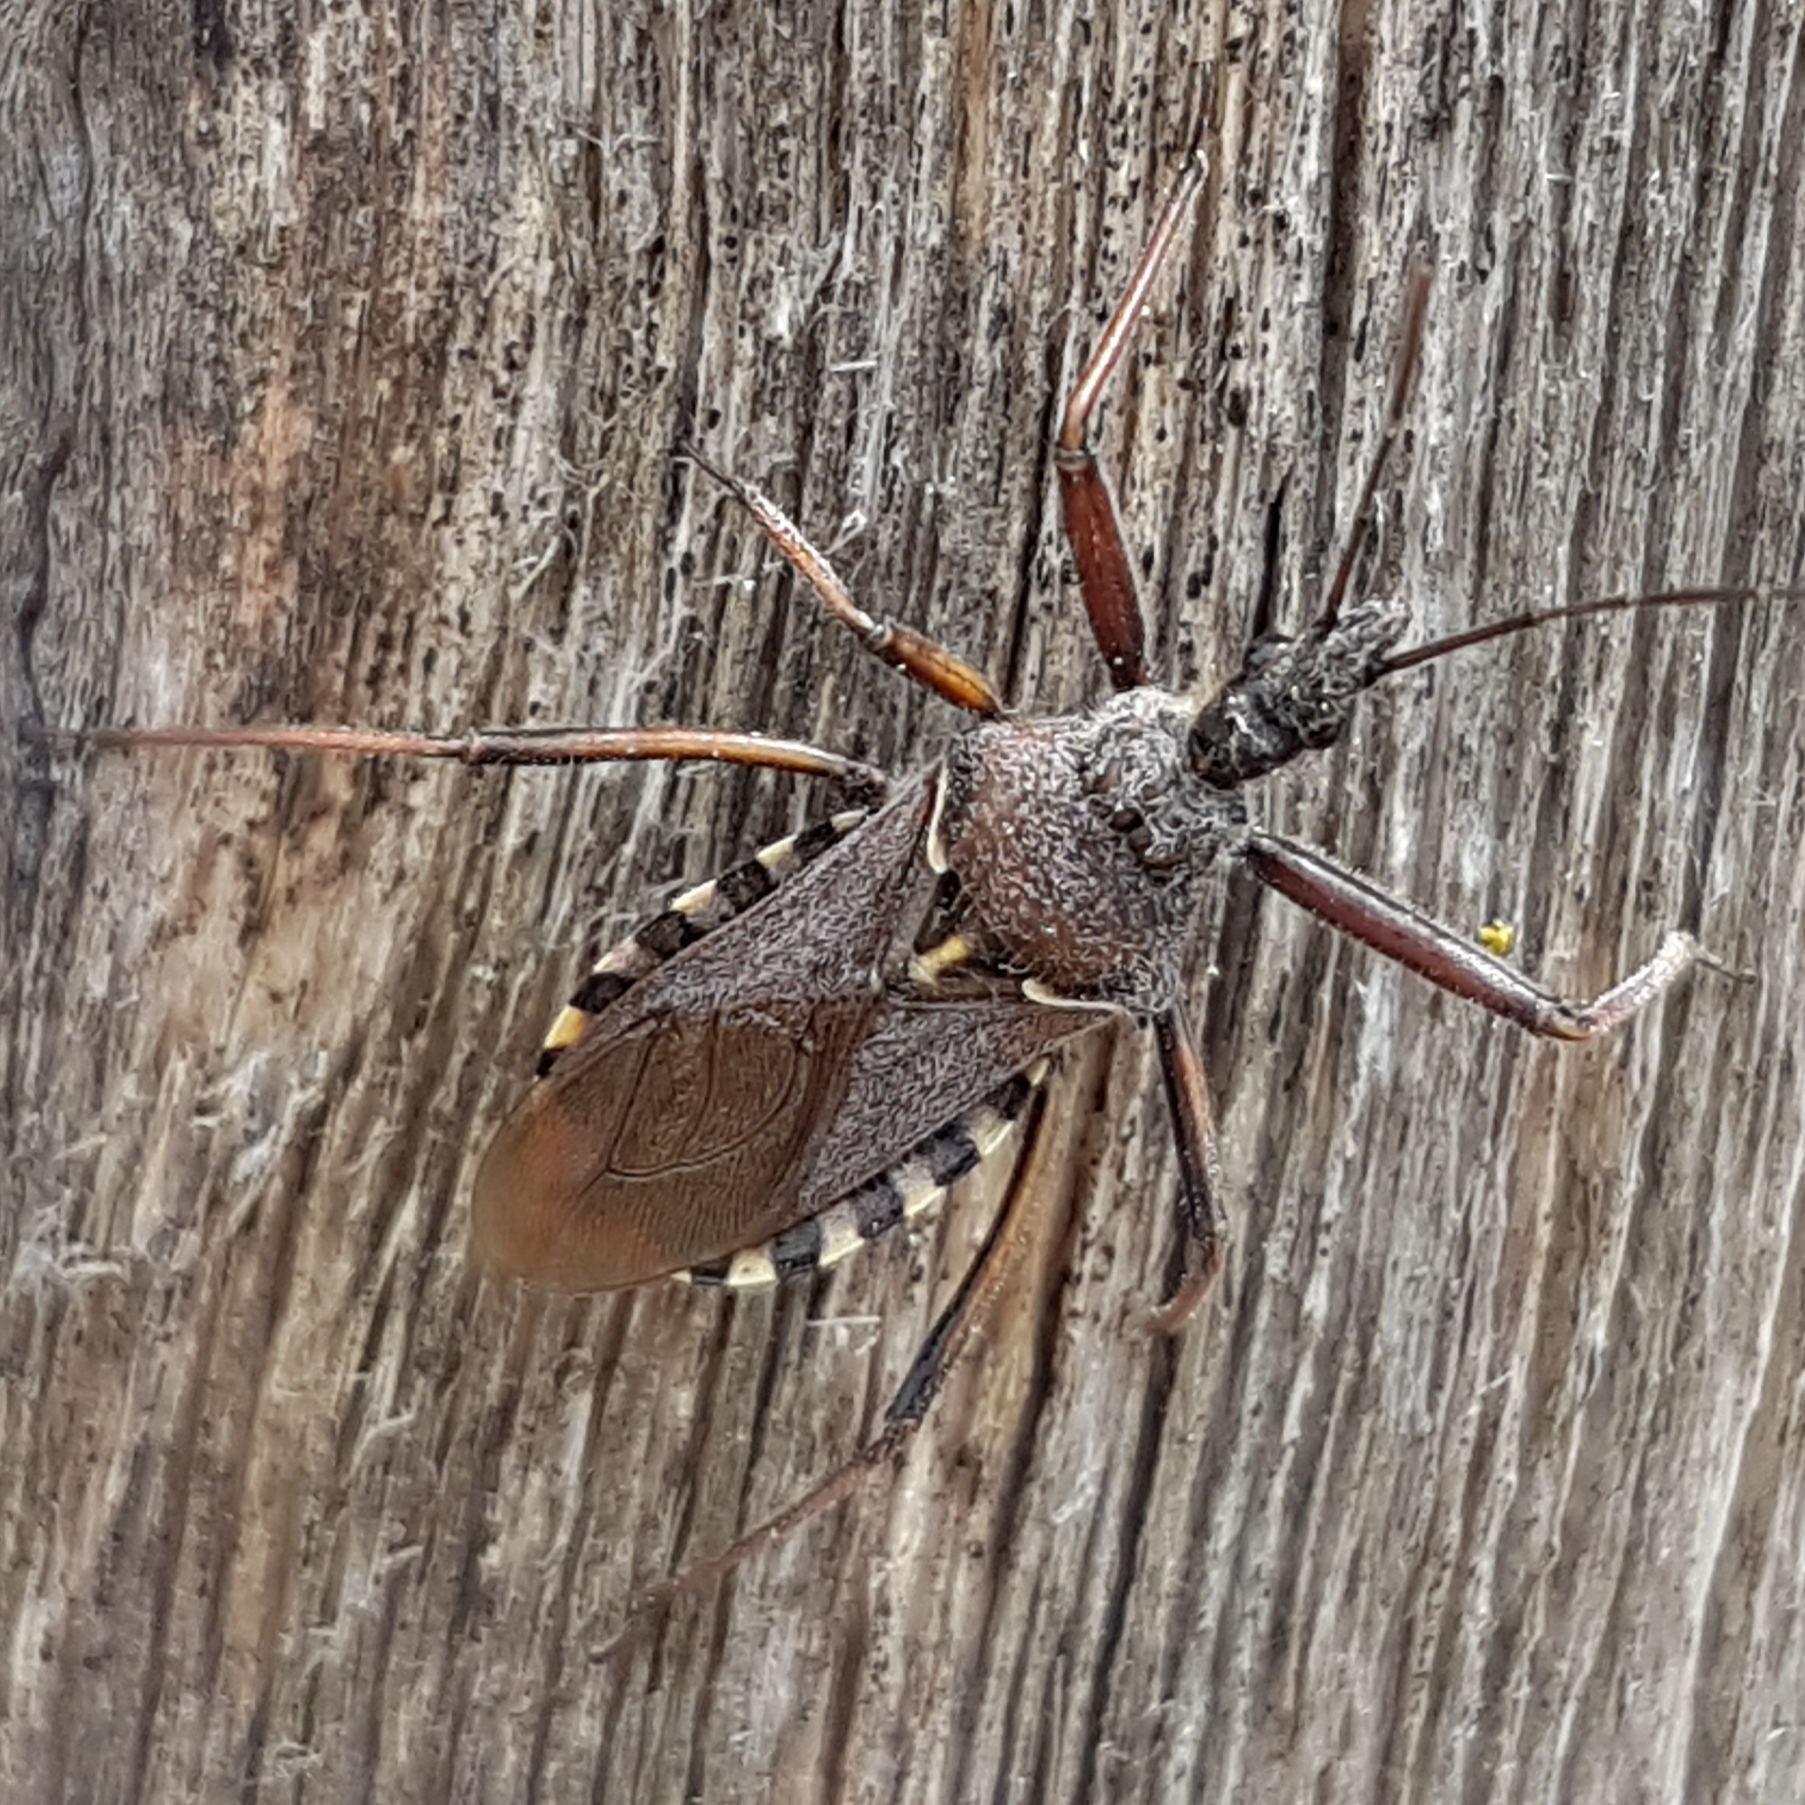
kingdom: Animalia
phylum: Arthropoda
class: Insecta
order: Hemiptera
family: Reduviidae
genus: Rhynocoris
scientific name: Rhynocoris erythropus
